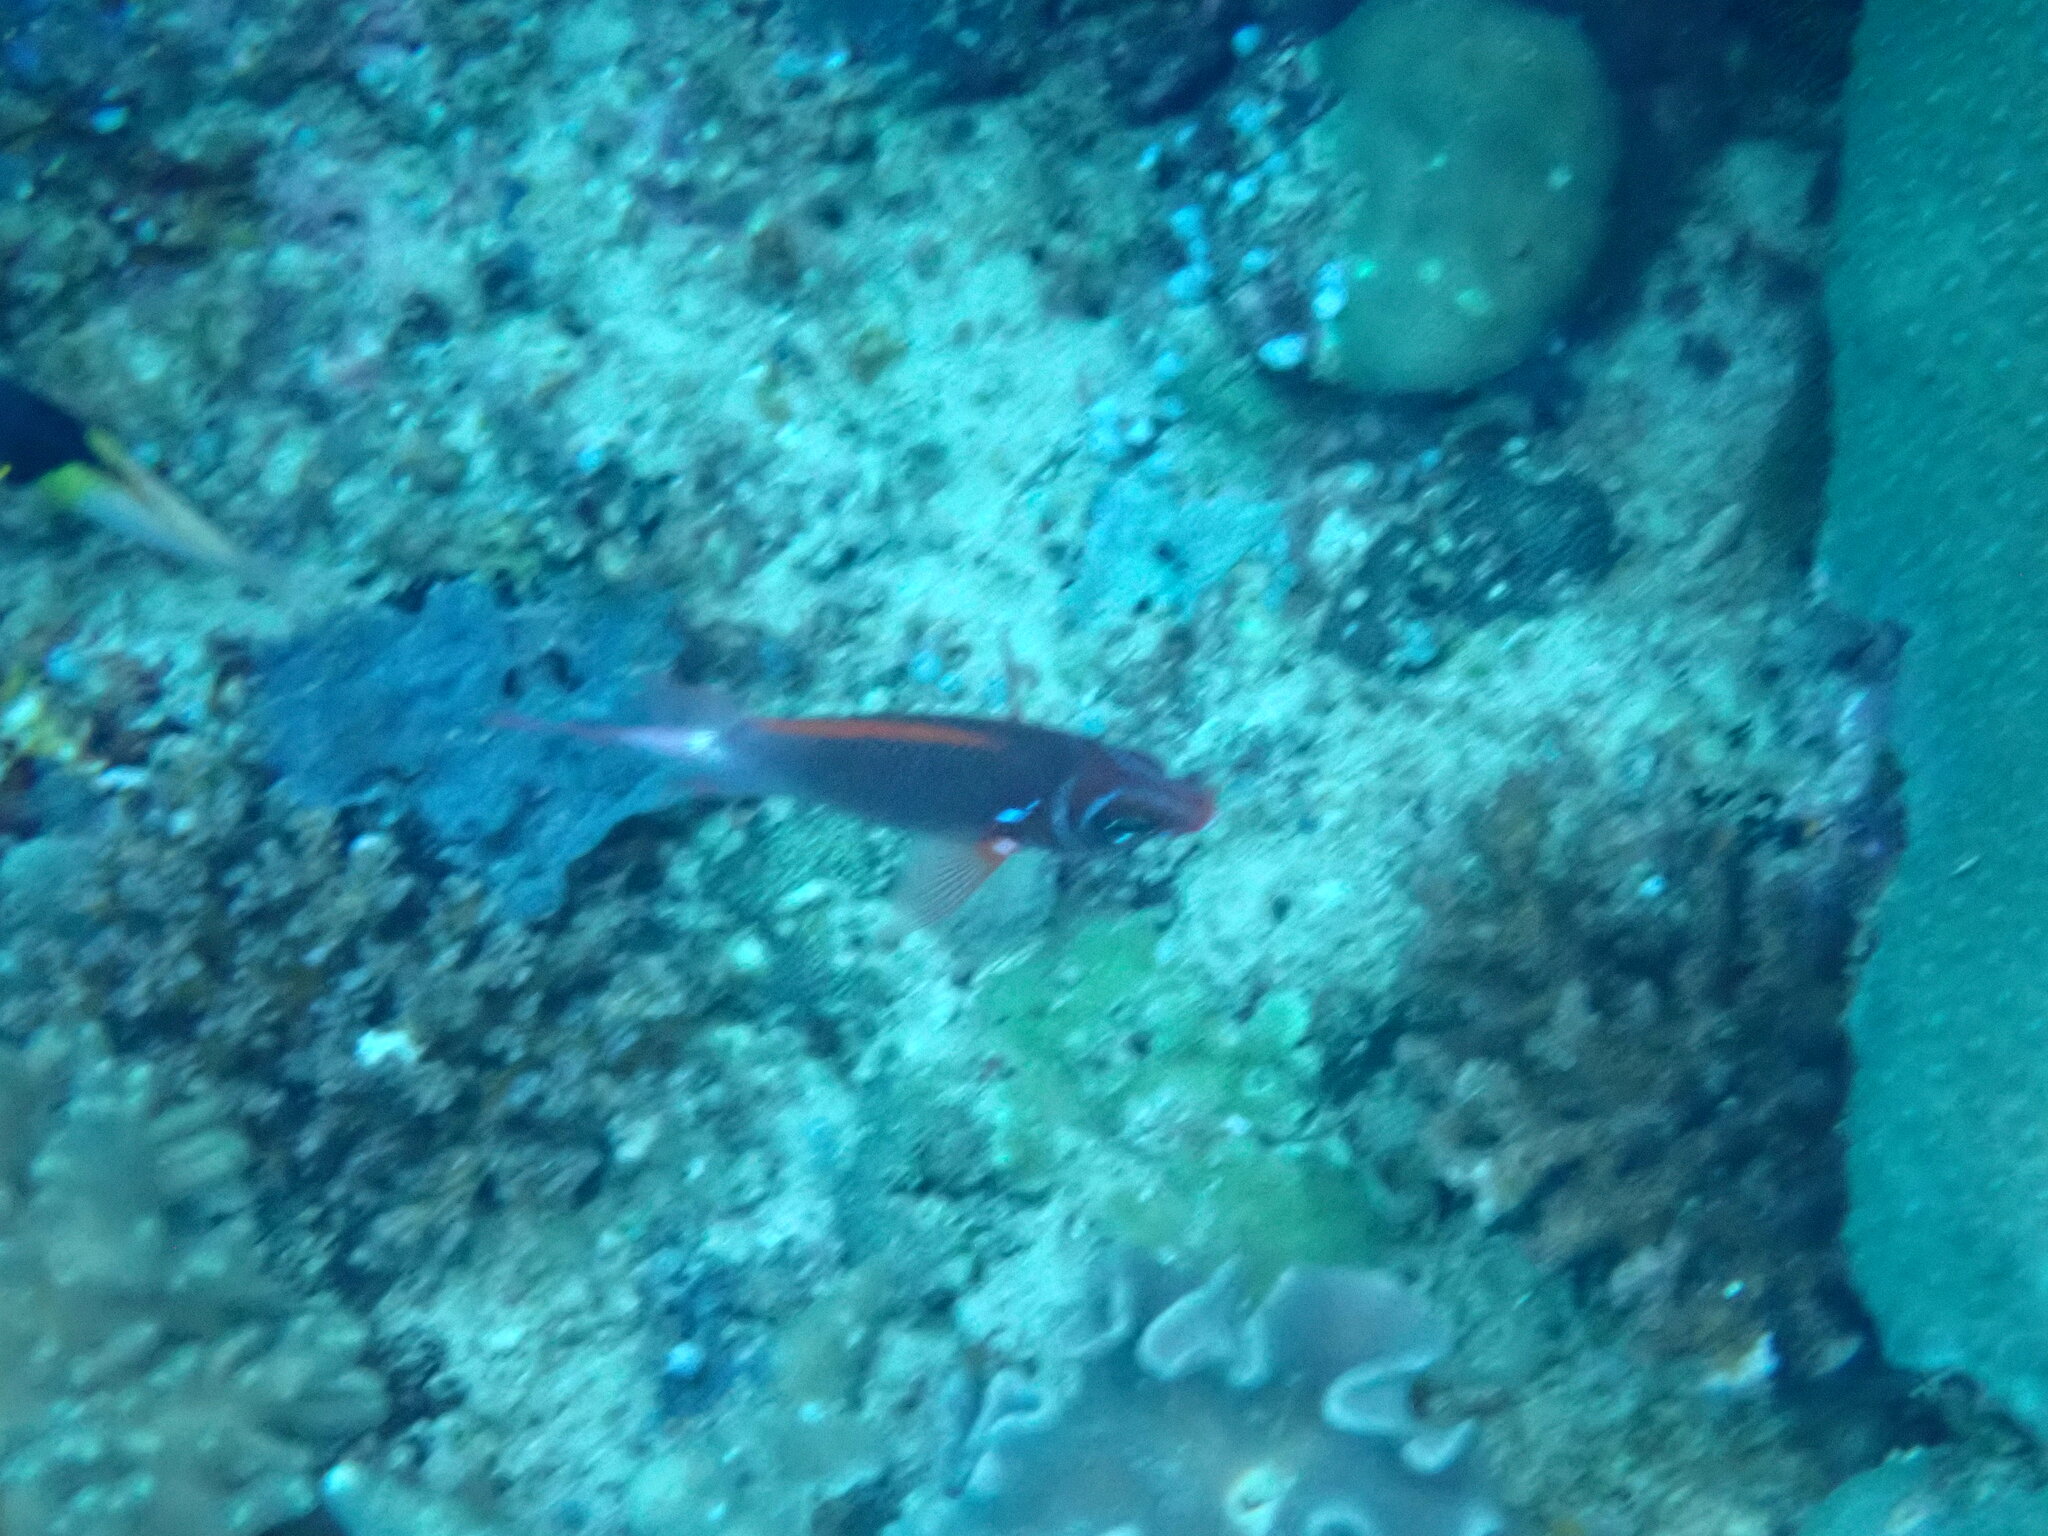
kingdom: Animalia
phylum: Chordata
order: Beryciformes
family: Holocentridae
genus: Sargocentron
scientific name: Sargocentron caudimaculatum
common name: Fanfin soldier
